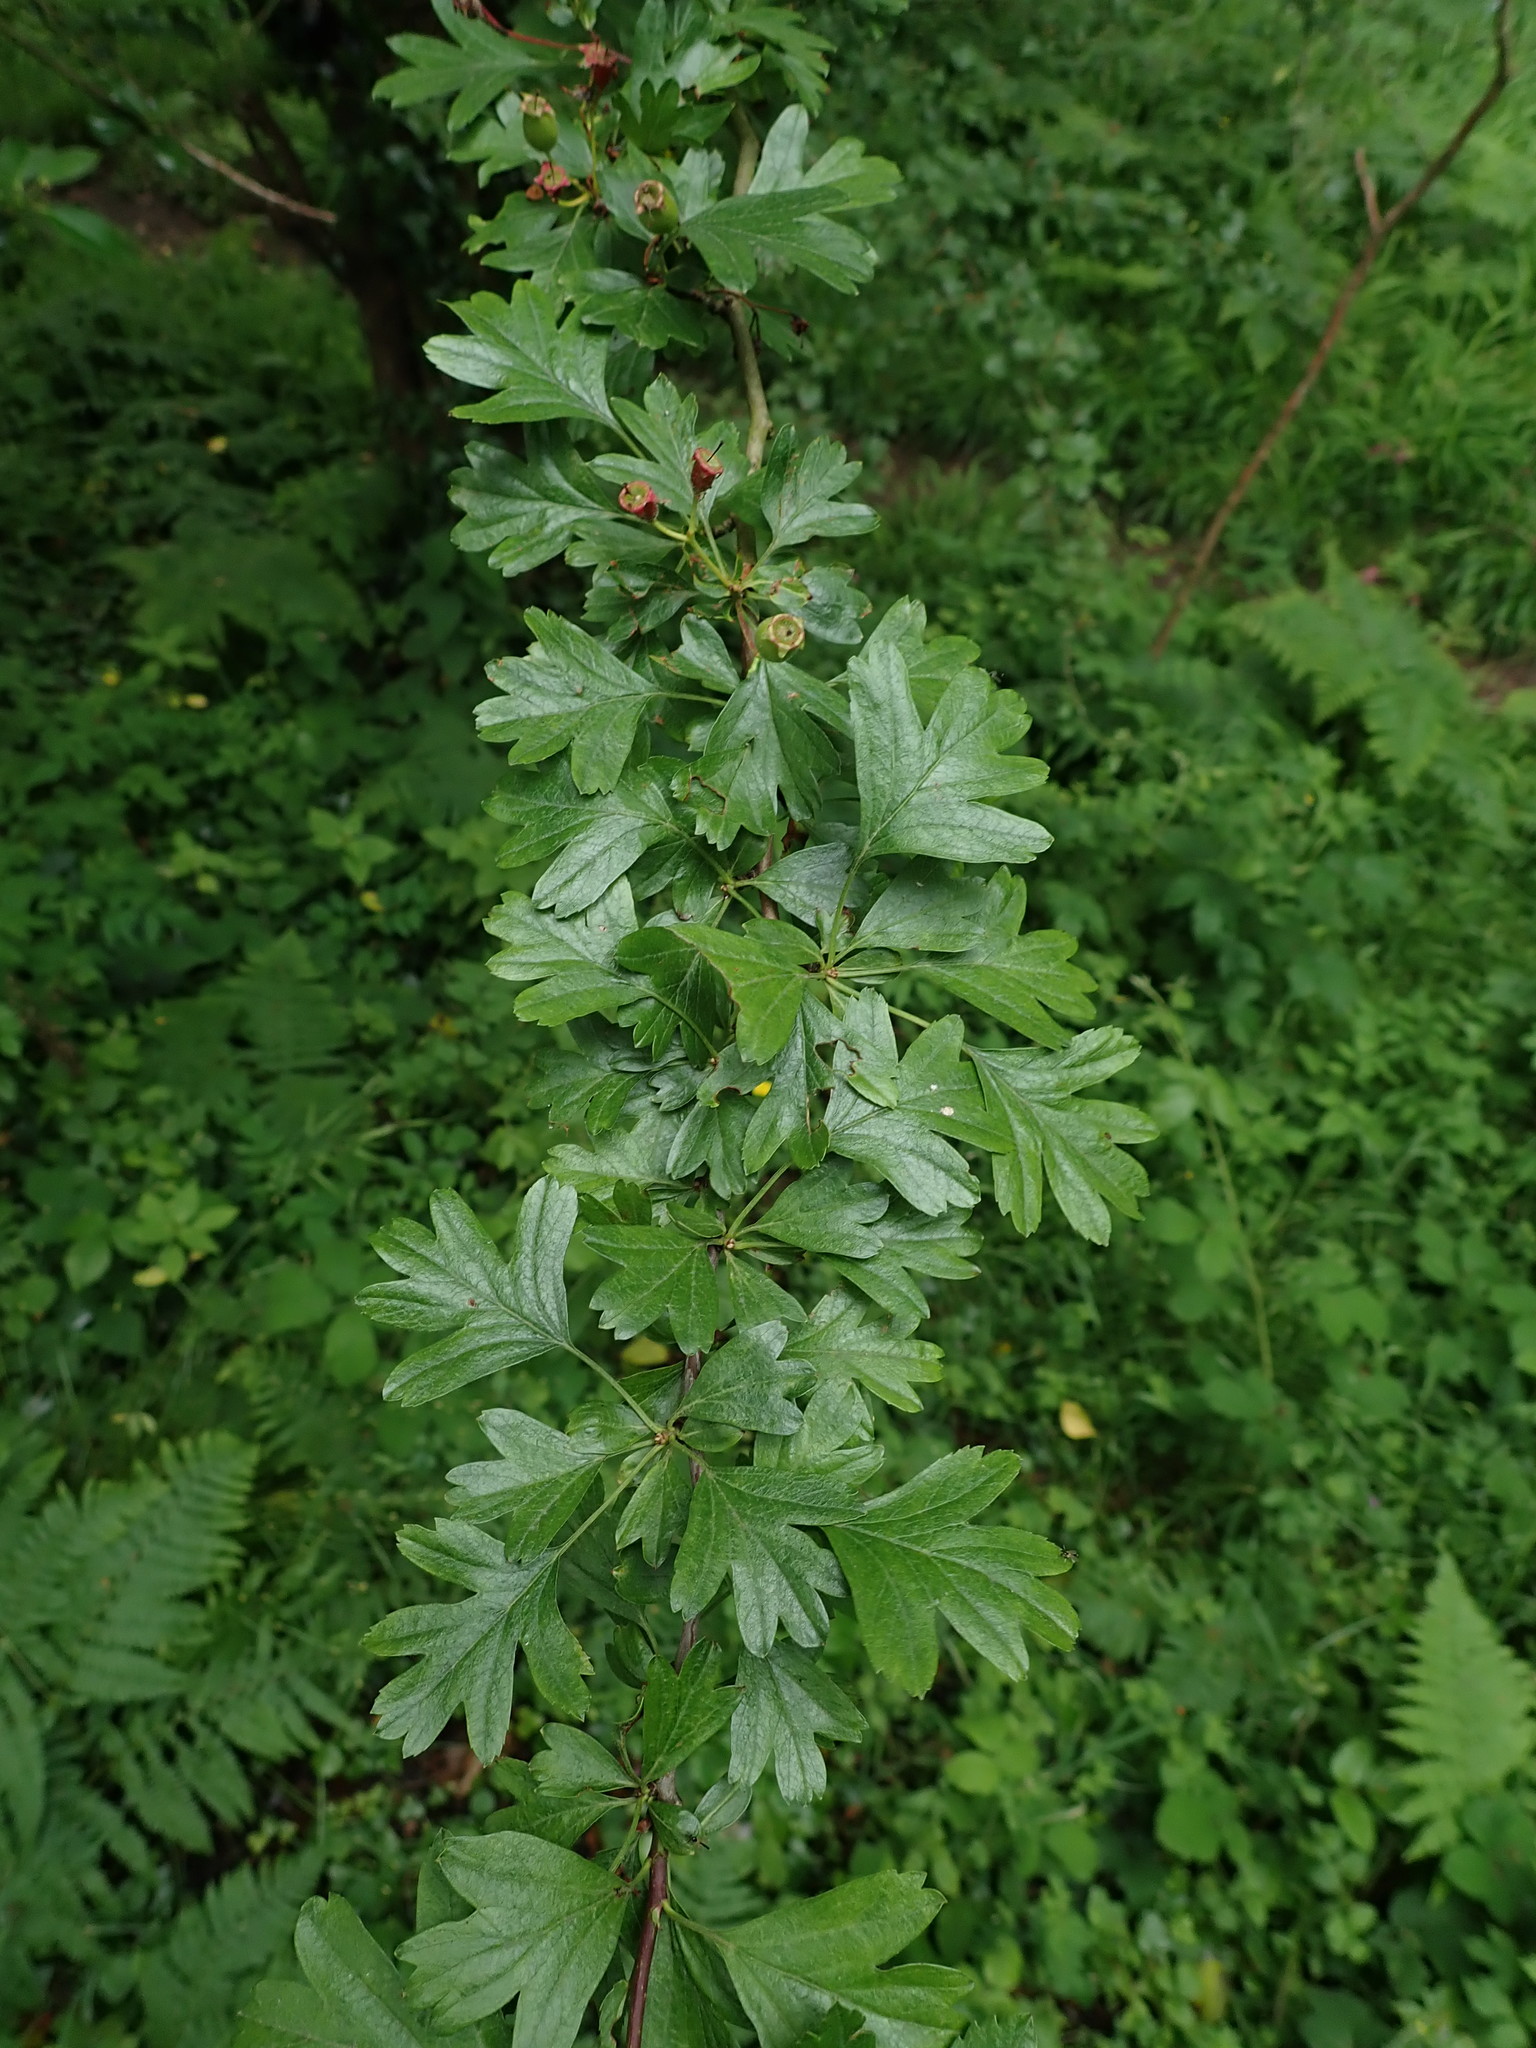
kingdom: Plantae
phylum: Tracheophyta
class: Magnoliopsida
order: Rosales
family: Rosaceae
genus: Crataegus
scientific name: Crataegus monogyna
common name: Hawthorn
